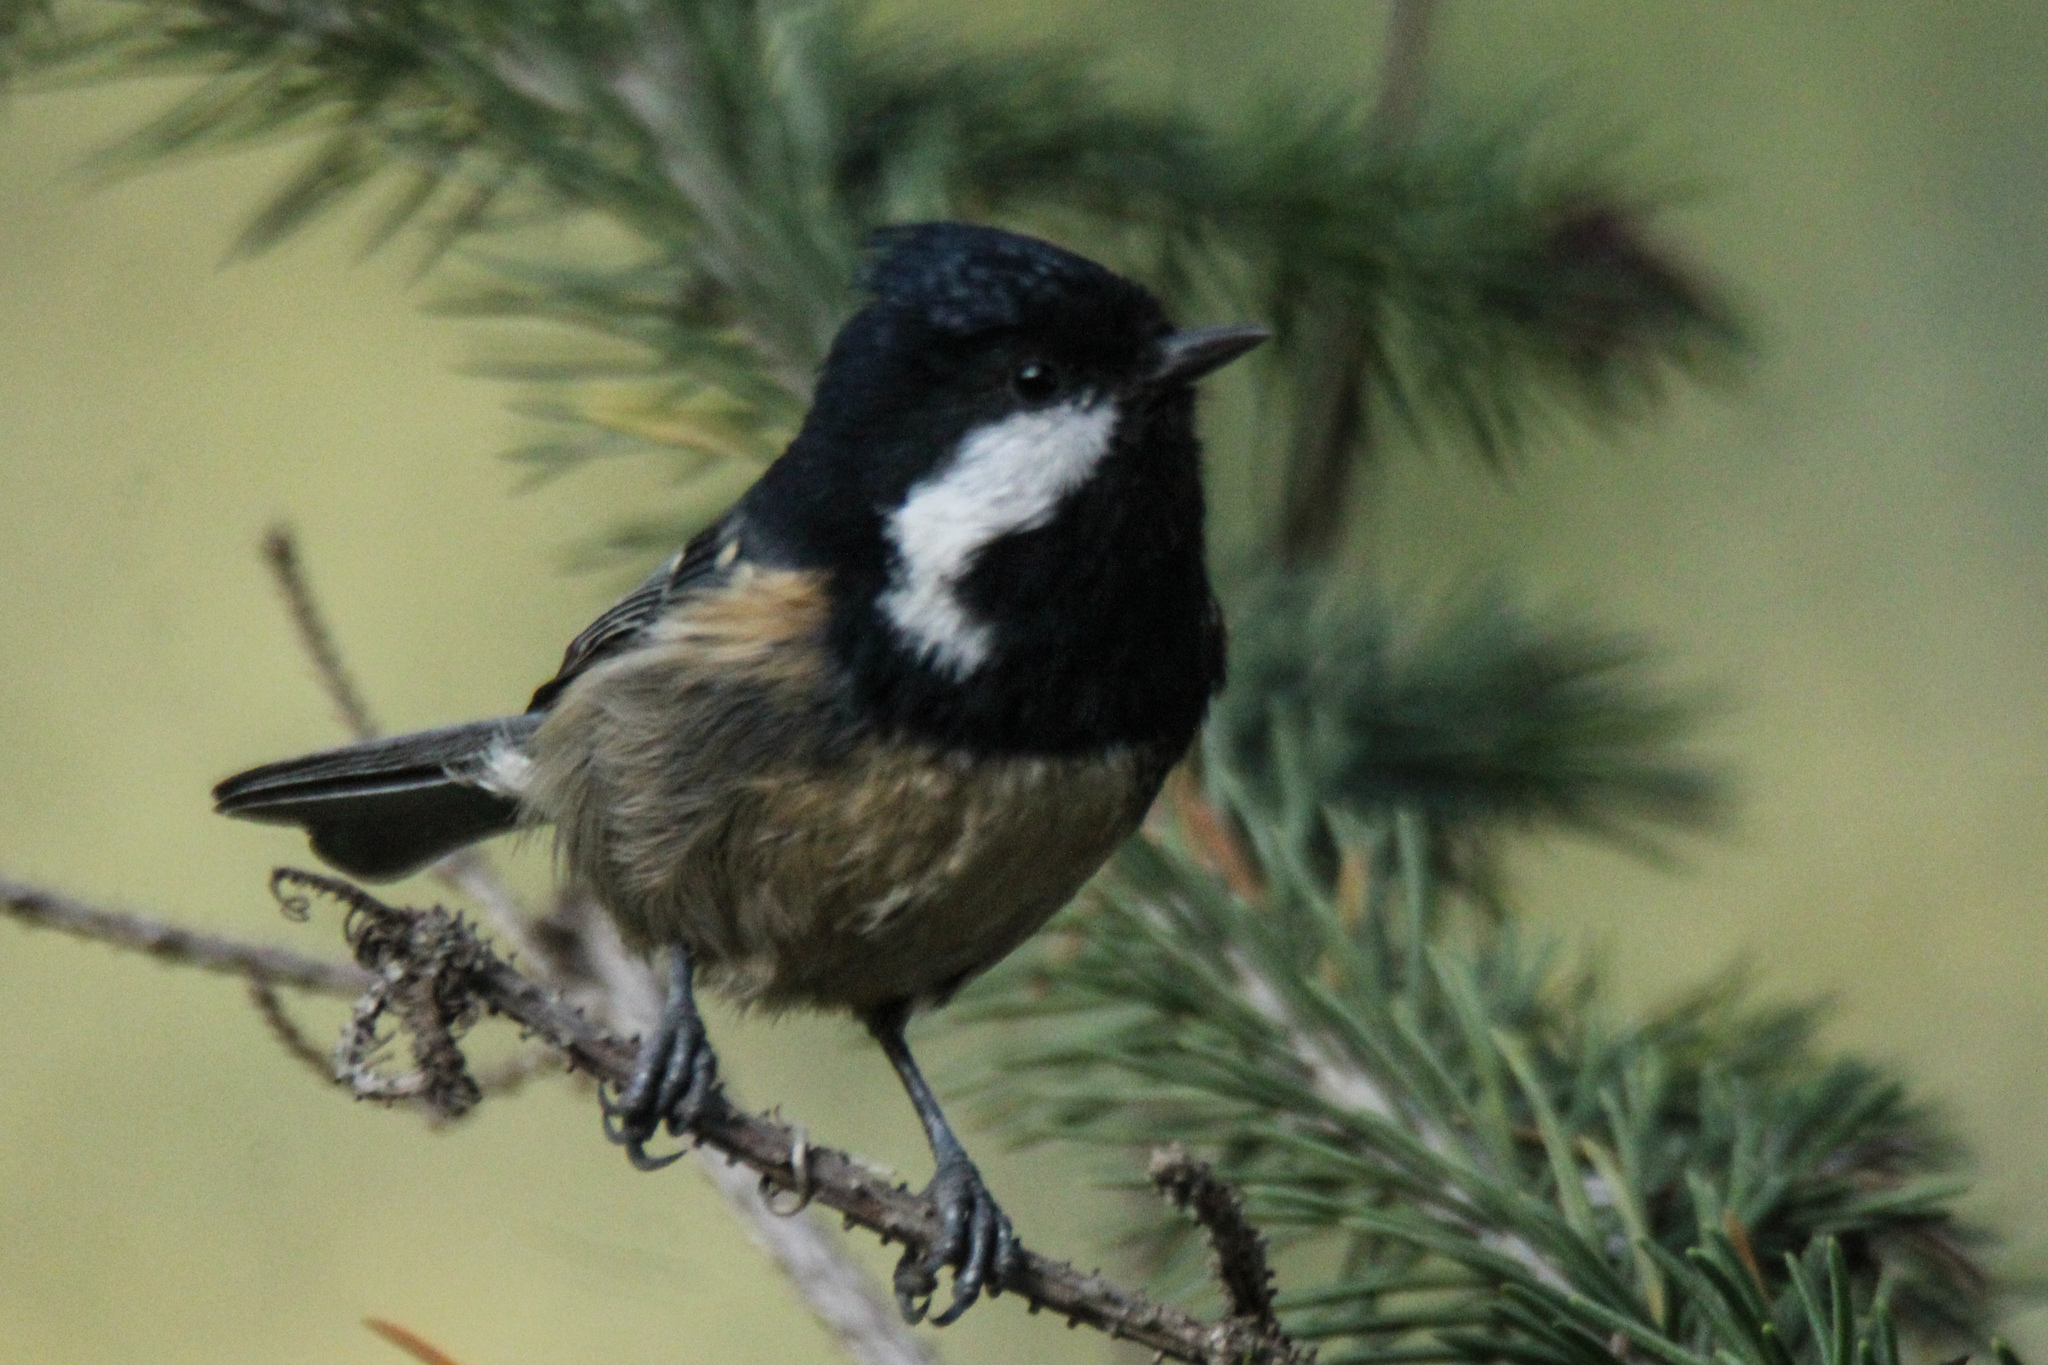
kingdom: Animalia
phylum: Chordata
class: Aves
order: Passeriformes
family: Paridae
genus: Periparus
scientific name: Periparus ater
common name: Coal tit
